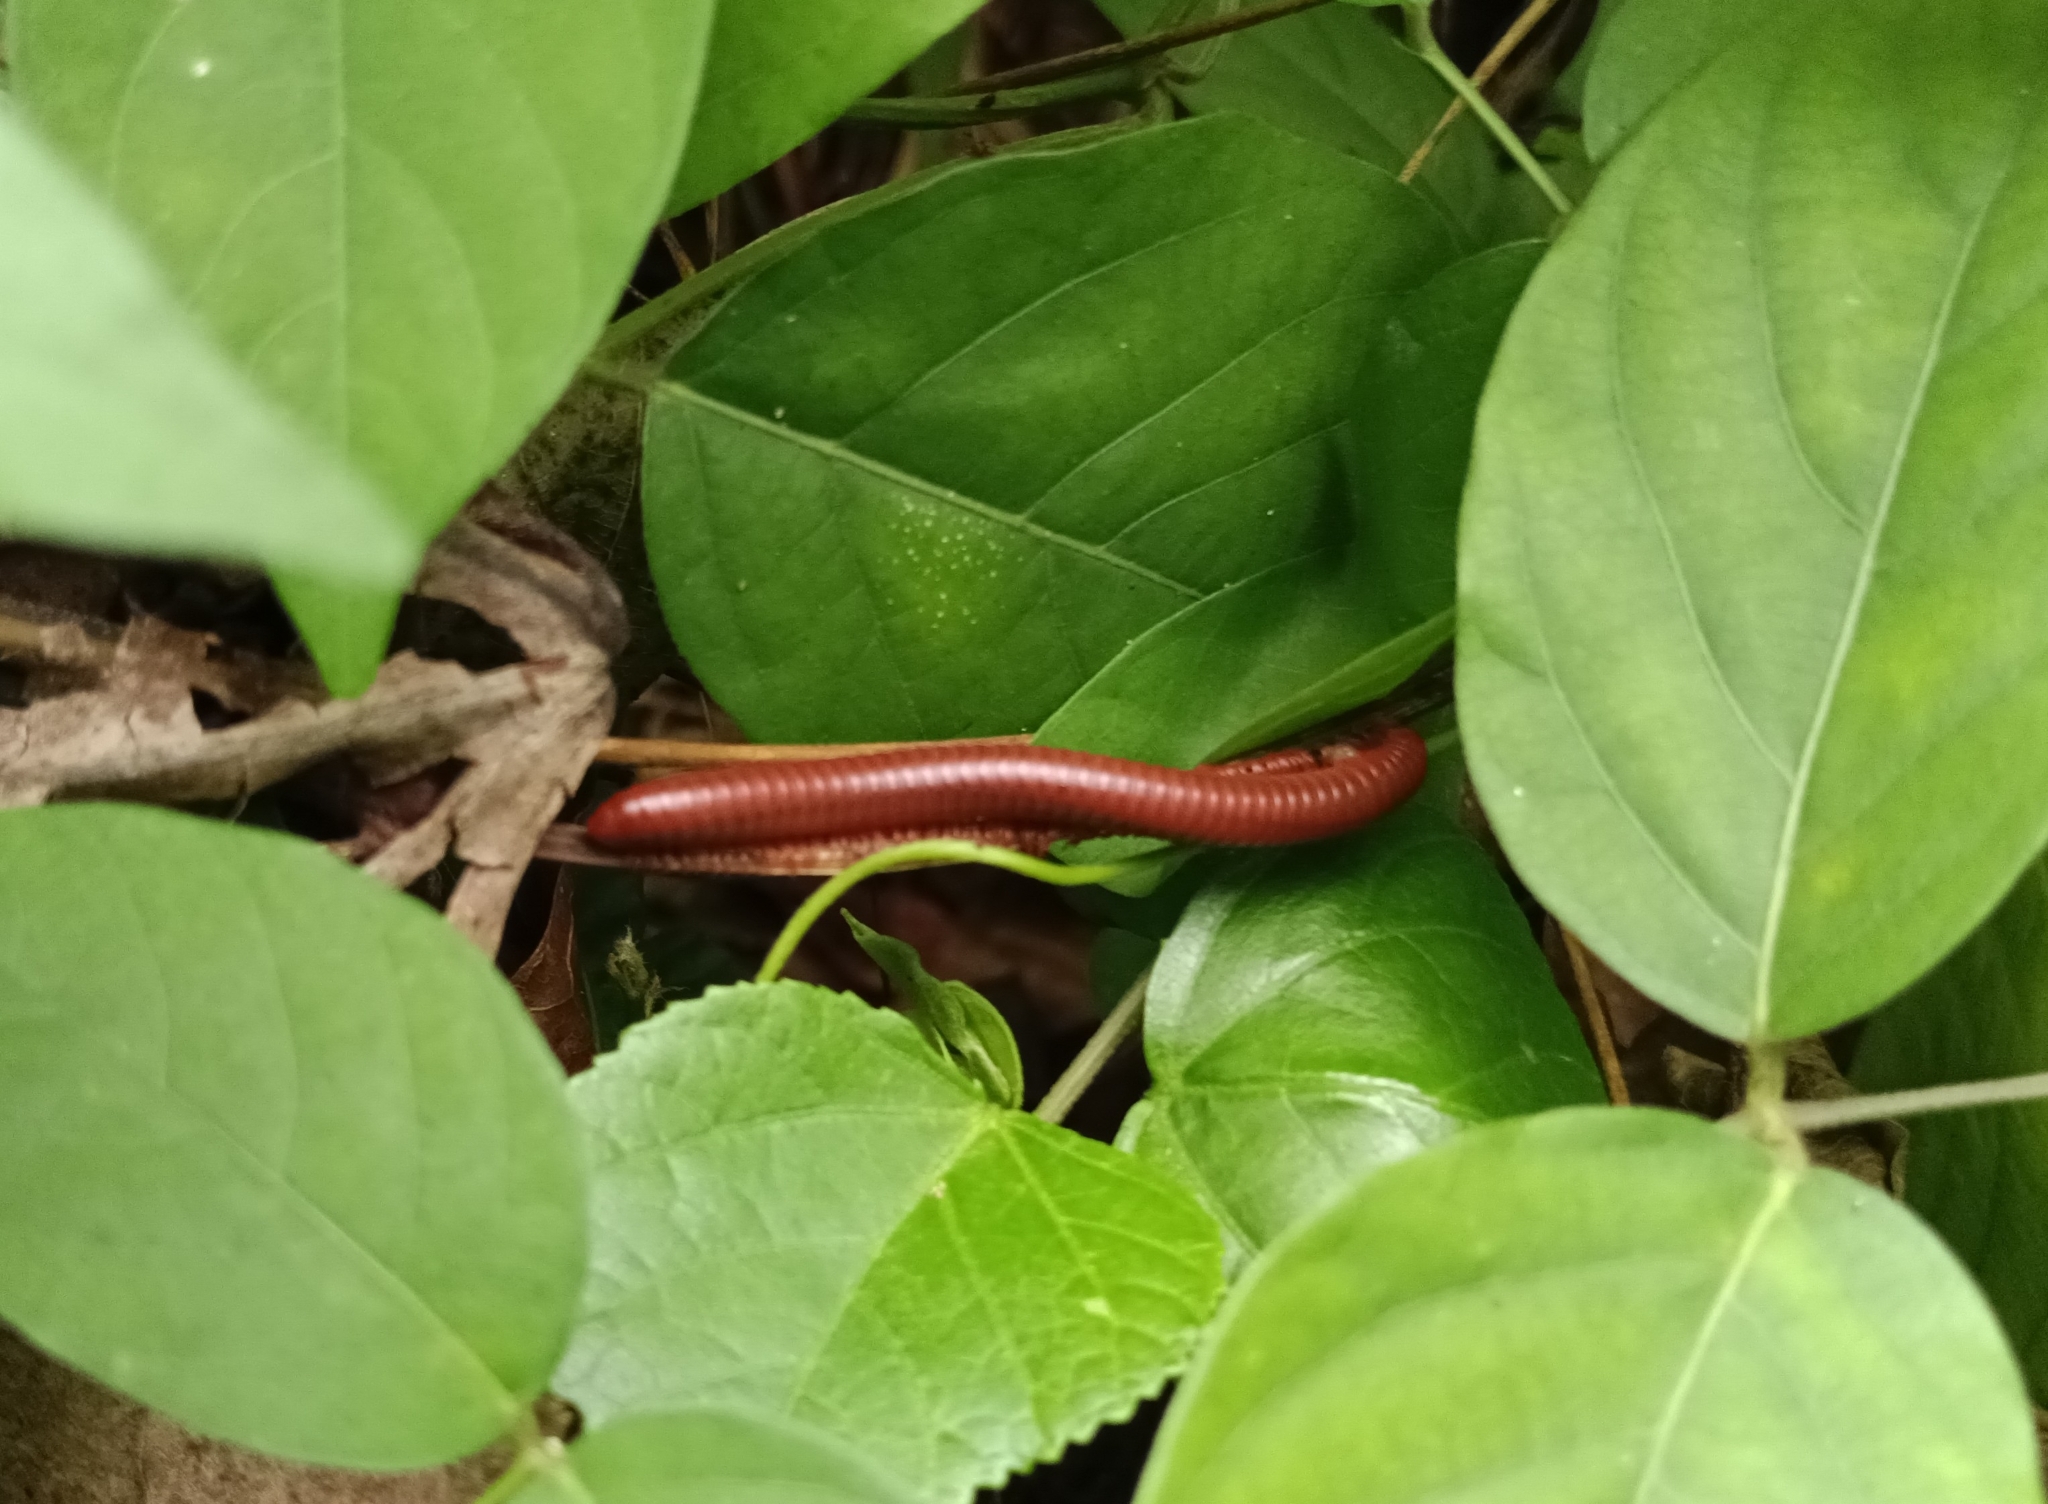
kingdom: Animalia
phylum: Arthropoda
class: Diplopoda
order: Spirobolida
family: Pachybolidae
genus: Trigoniulus
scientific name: Trigoniulus corallinus
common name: Millipede
